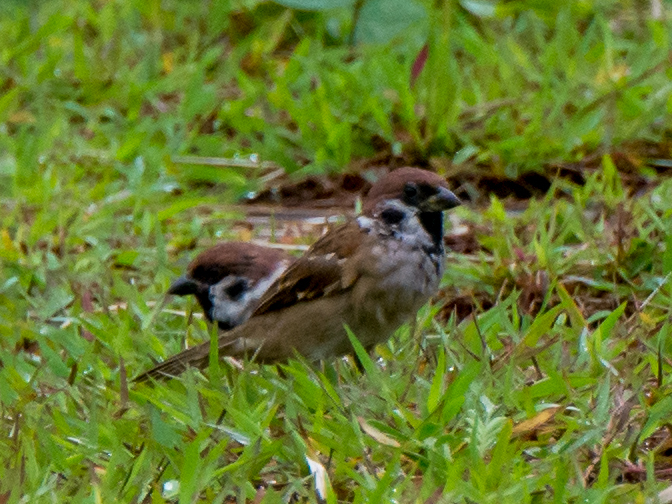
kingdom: Animalia
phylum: Chordata
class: Aves
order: Passeriformes
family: Passeridae
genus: Passer
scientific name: Passer montanus
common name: Eurasian tree sparrow
